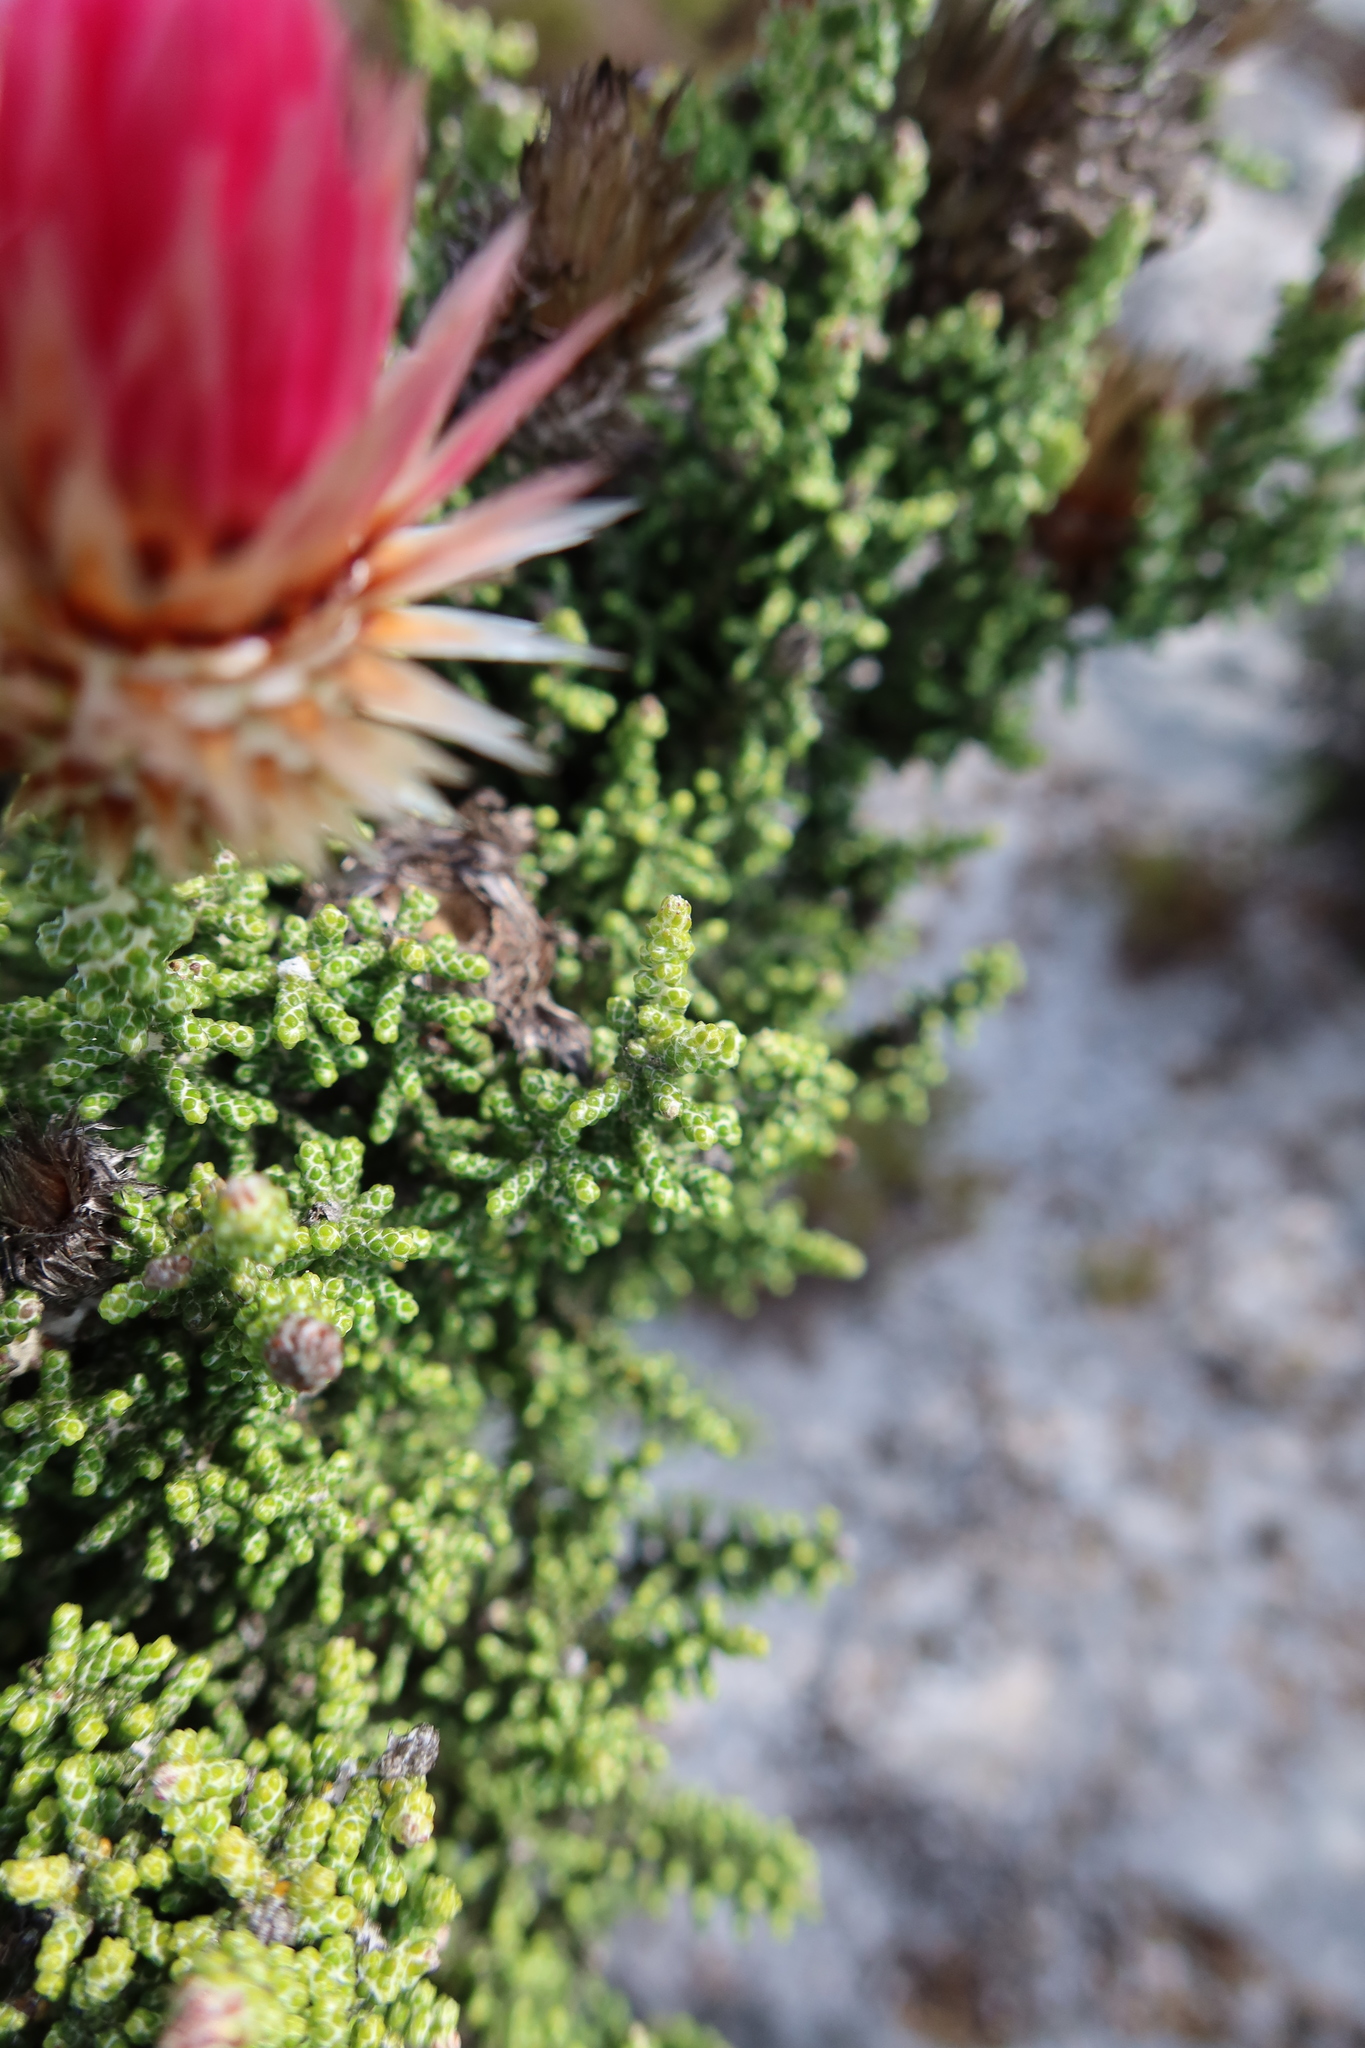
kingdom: Plantae
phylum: Tracheophyta
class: Magnoliopsida
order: Asterales
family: Asteraceae
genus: Phaenocoma
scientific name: Phaenocoma prolifera
